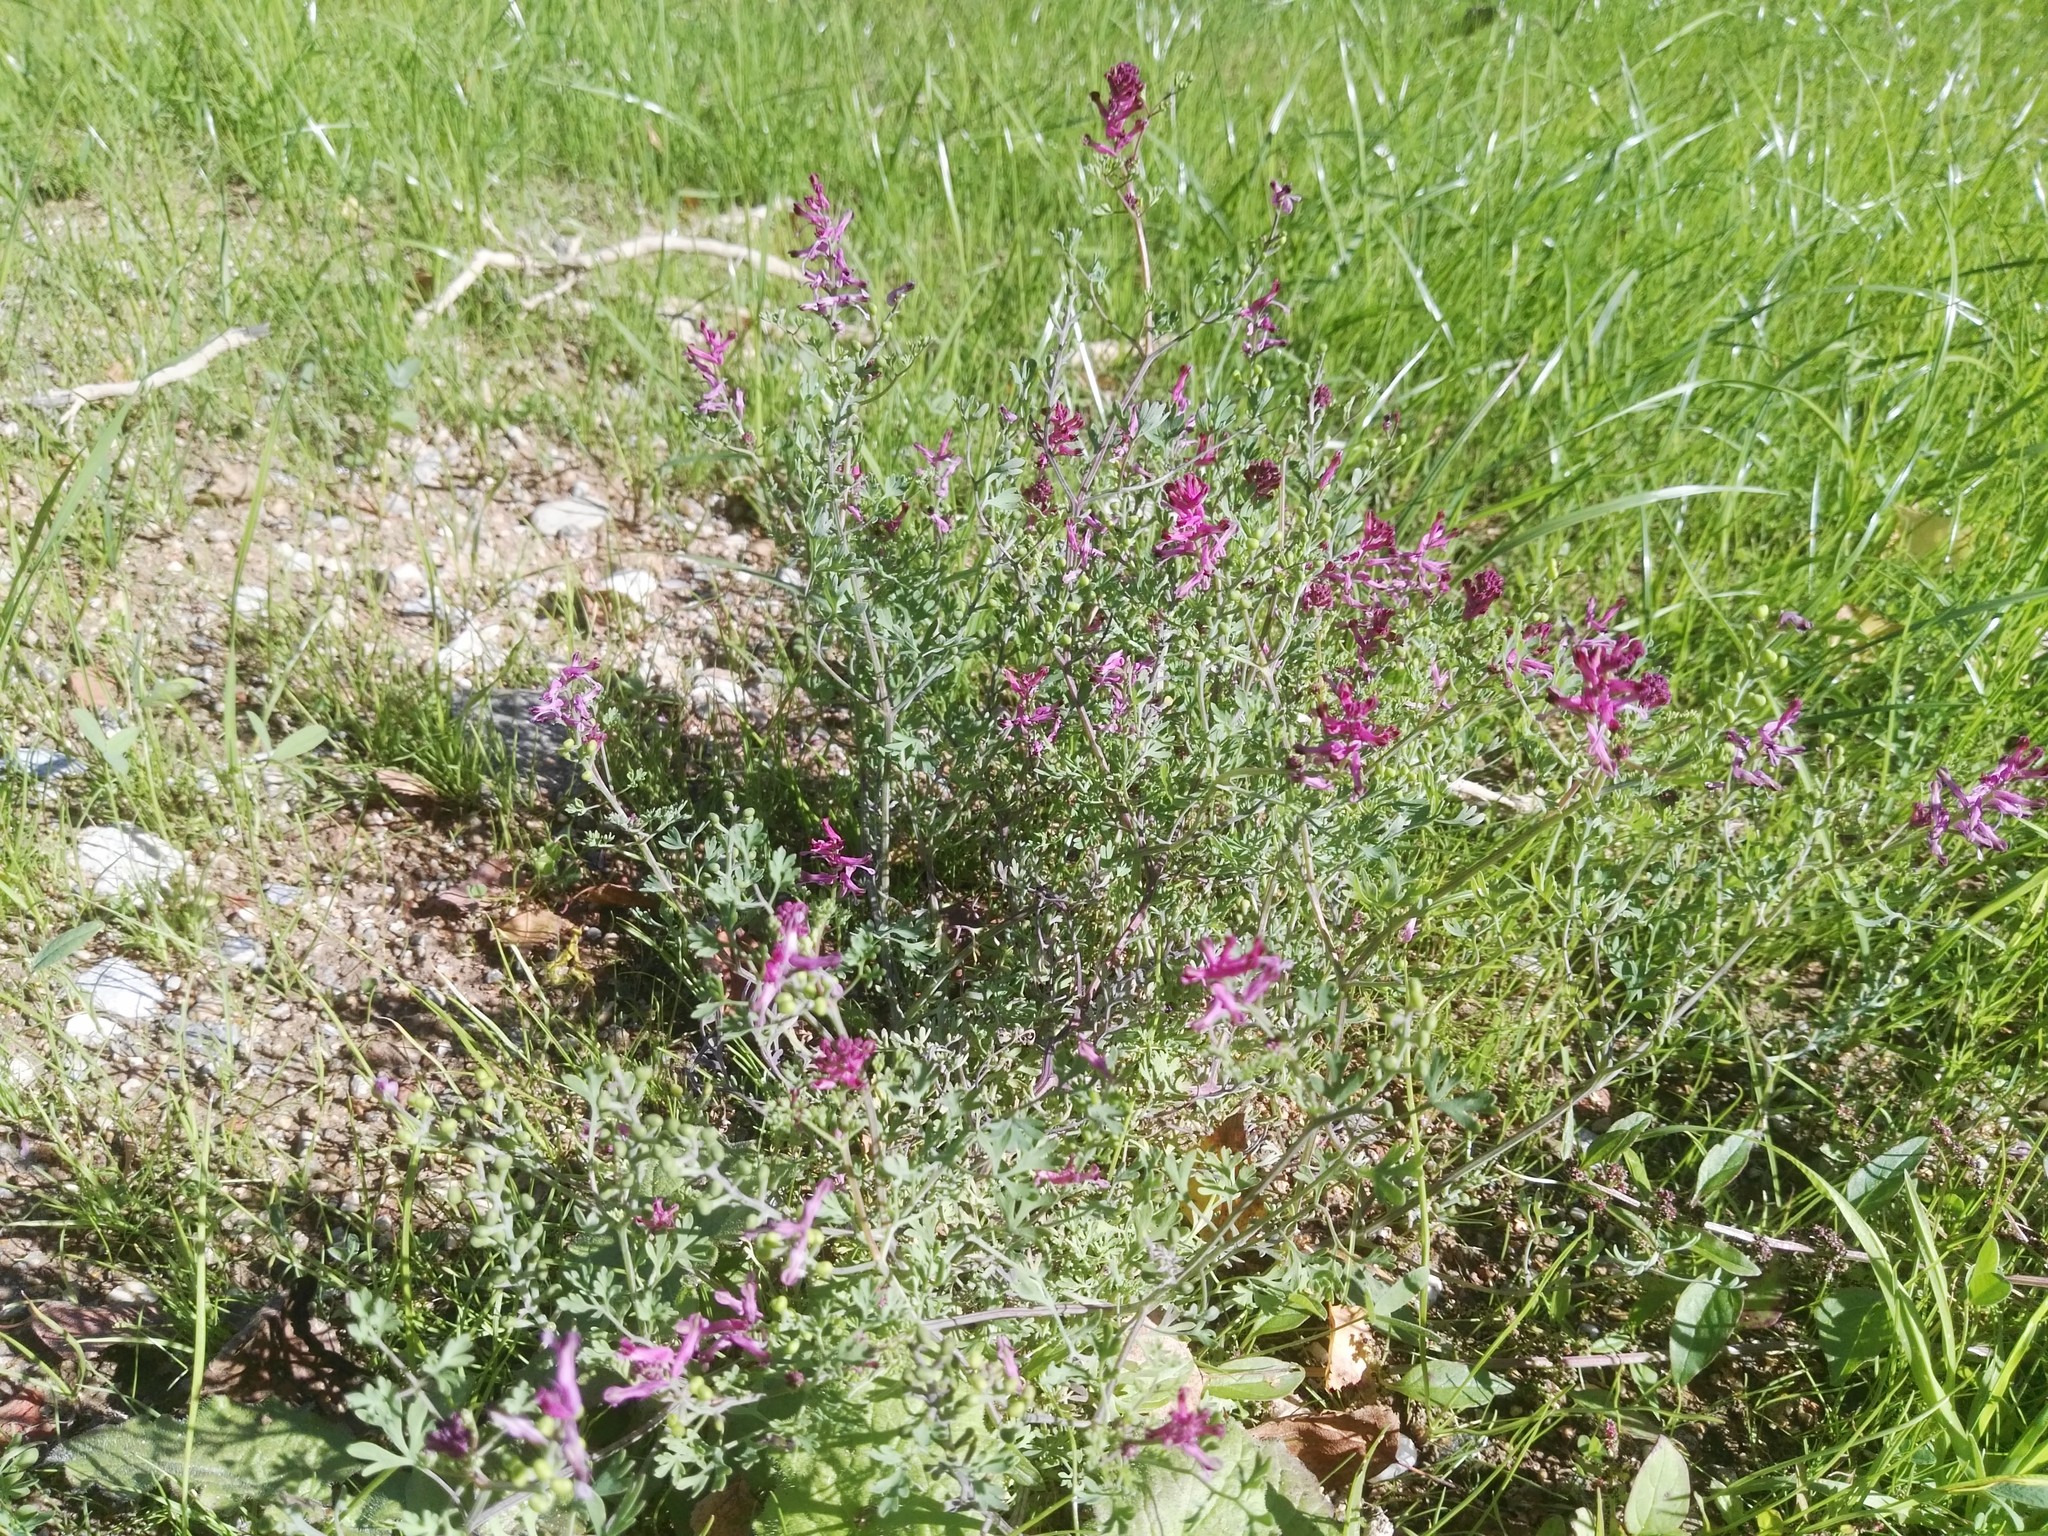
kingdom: Plantae
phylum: Tracheophyta
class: Magnoliopsida
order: Ranunculales
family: Papaveraceae
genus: Fumaria
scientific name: Fumaria officinalis
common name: Common fumitory
